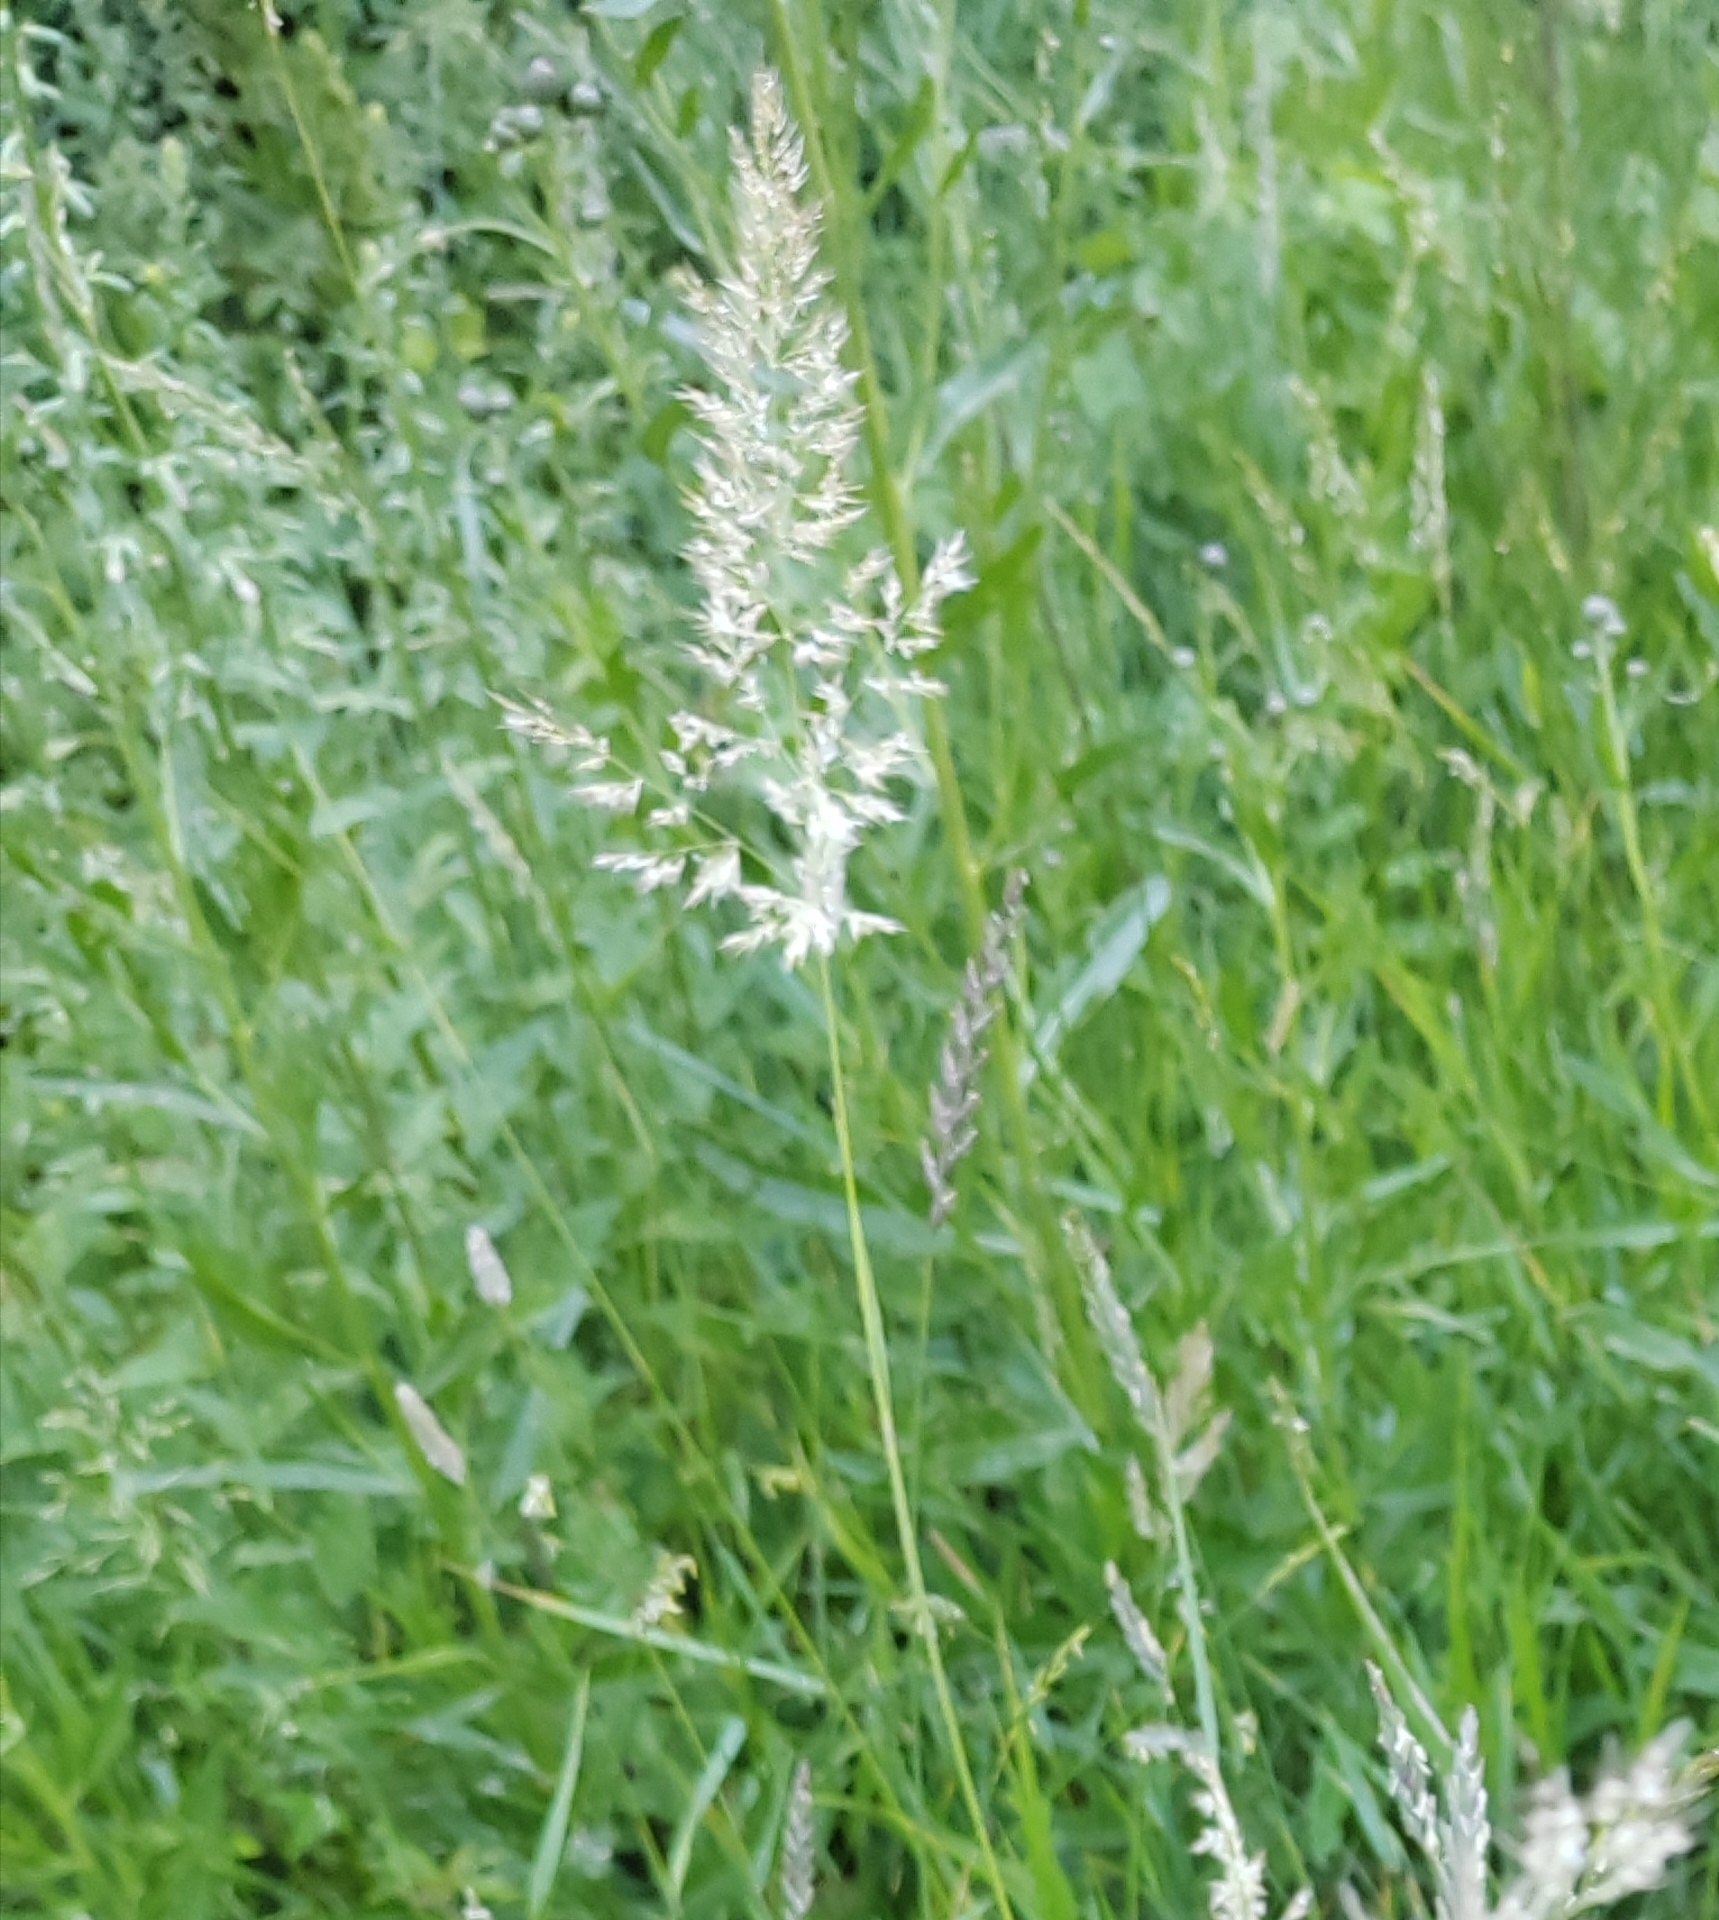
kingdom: Plantae
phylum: Tracheophyta
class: Liliopsida
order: Poales
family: Poaceae
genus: Phalaris
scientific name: Phalaris arundinacea
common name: Reed canary-grass
